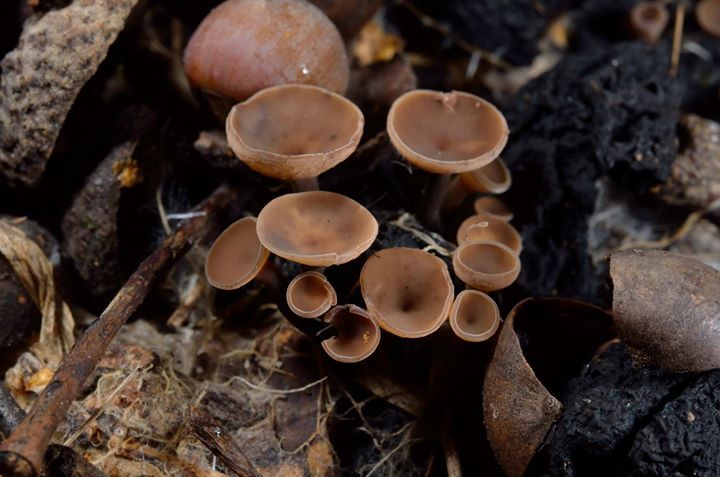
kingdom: Fungi
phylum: Ascomycota
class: Leotiomycetes
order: Helotiales
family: Sclerotiniaceae
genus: Ciboria
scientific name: Ciboria batschiana
